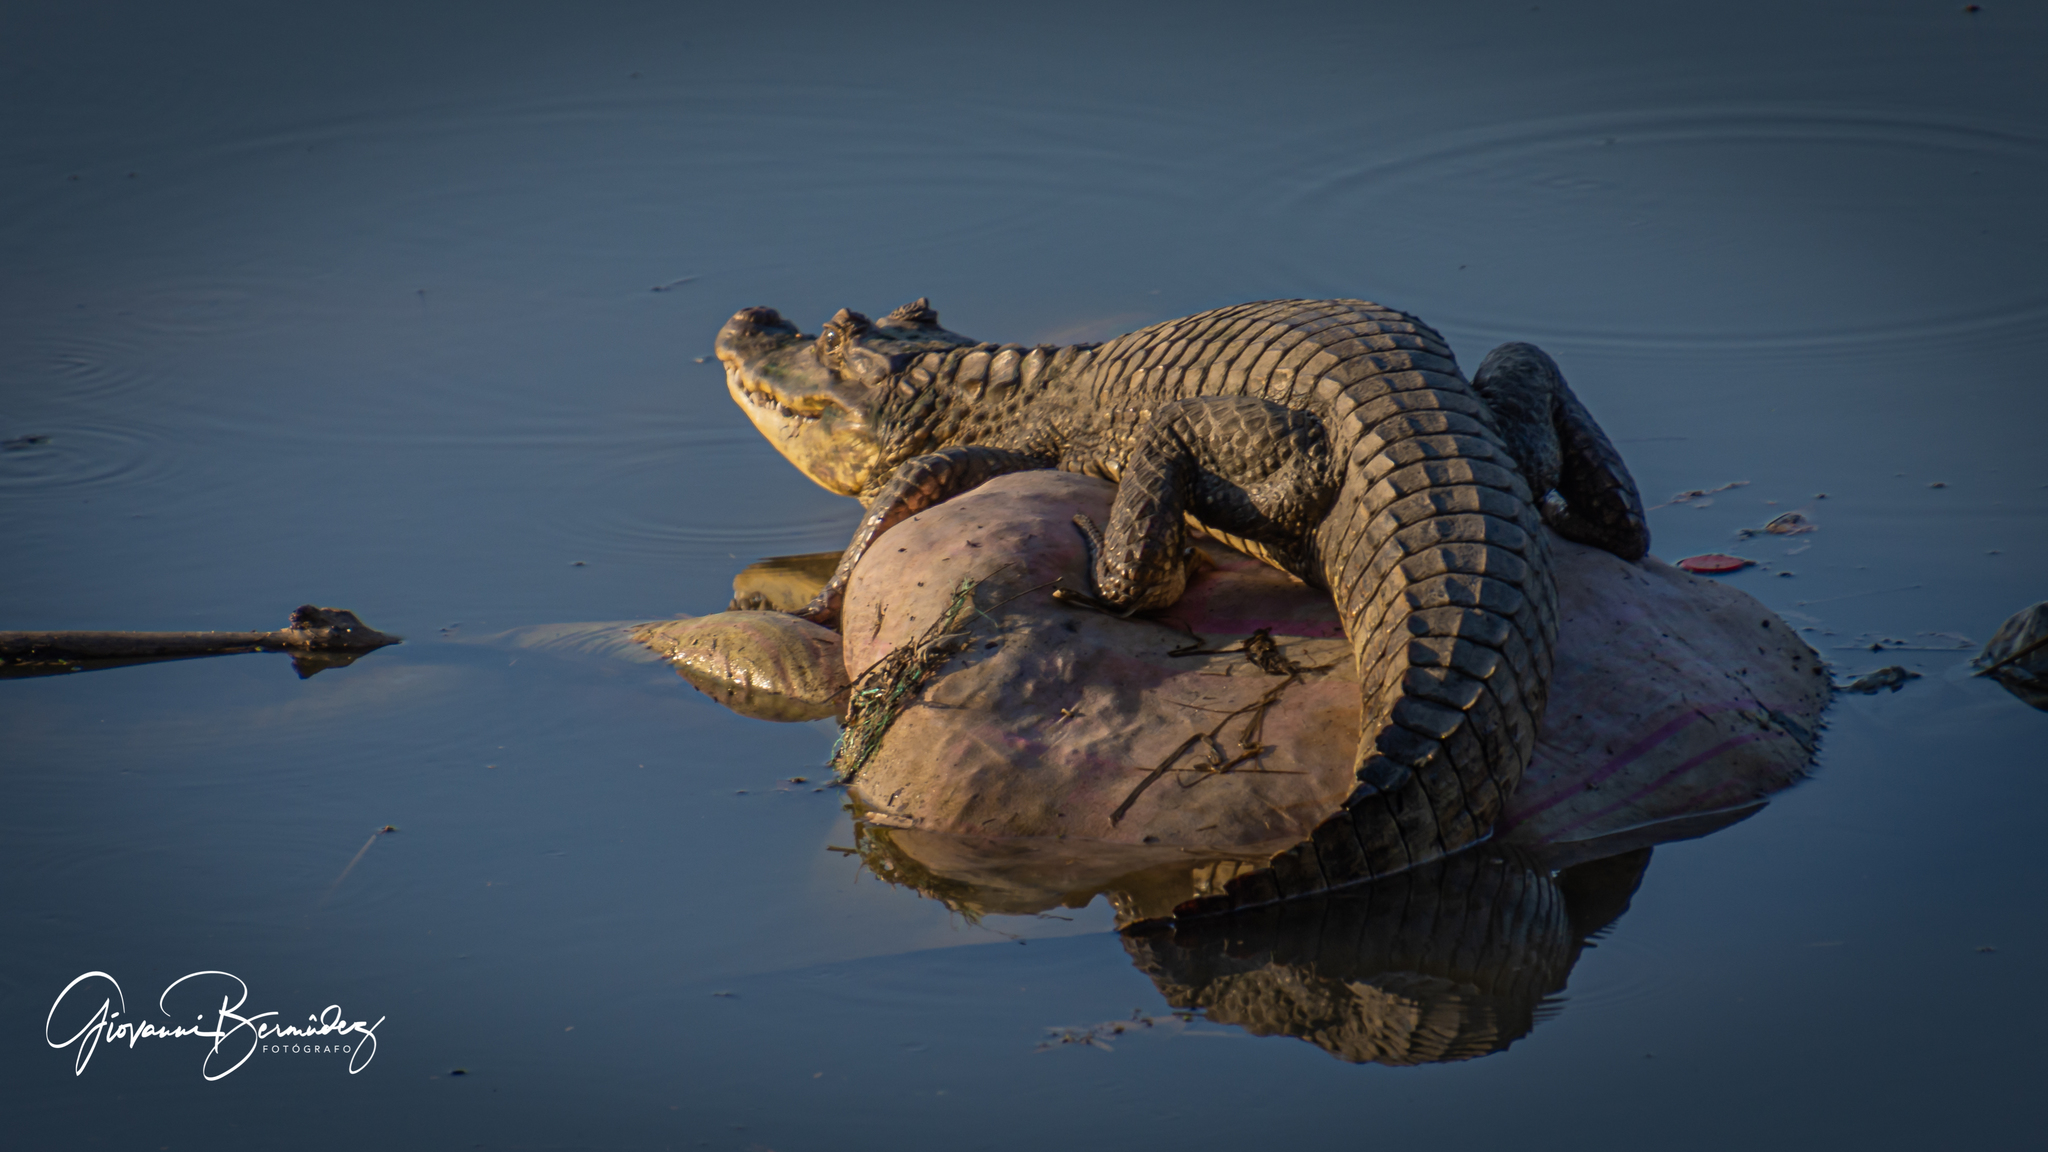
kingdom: Animalia
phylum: Chordata
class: Crocodylia
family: Alligatoridae
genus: Caiman
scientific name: Caiman crocodilus
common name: Common caiman
